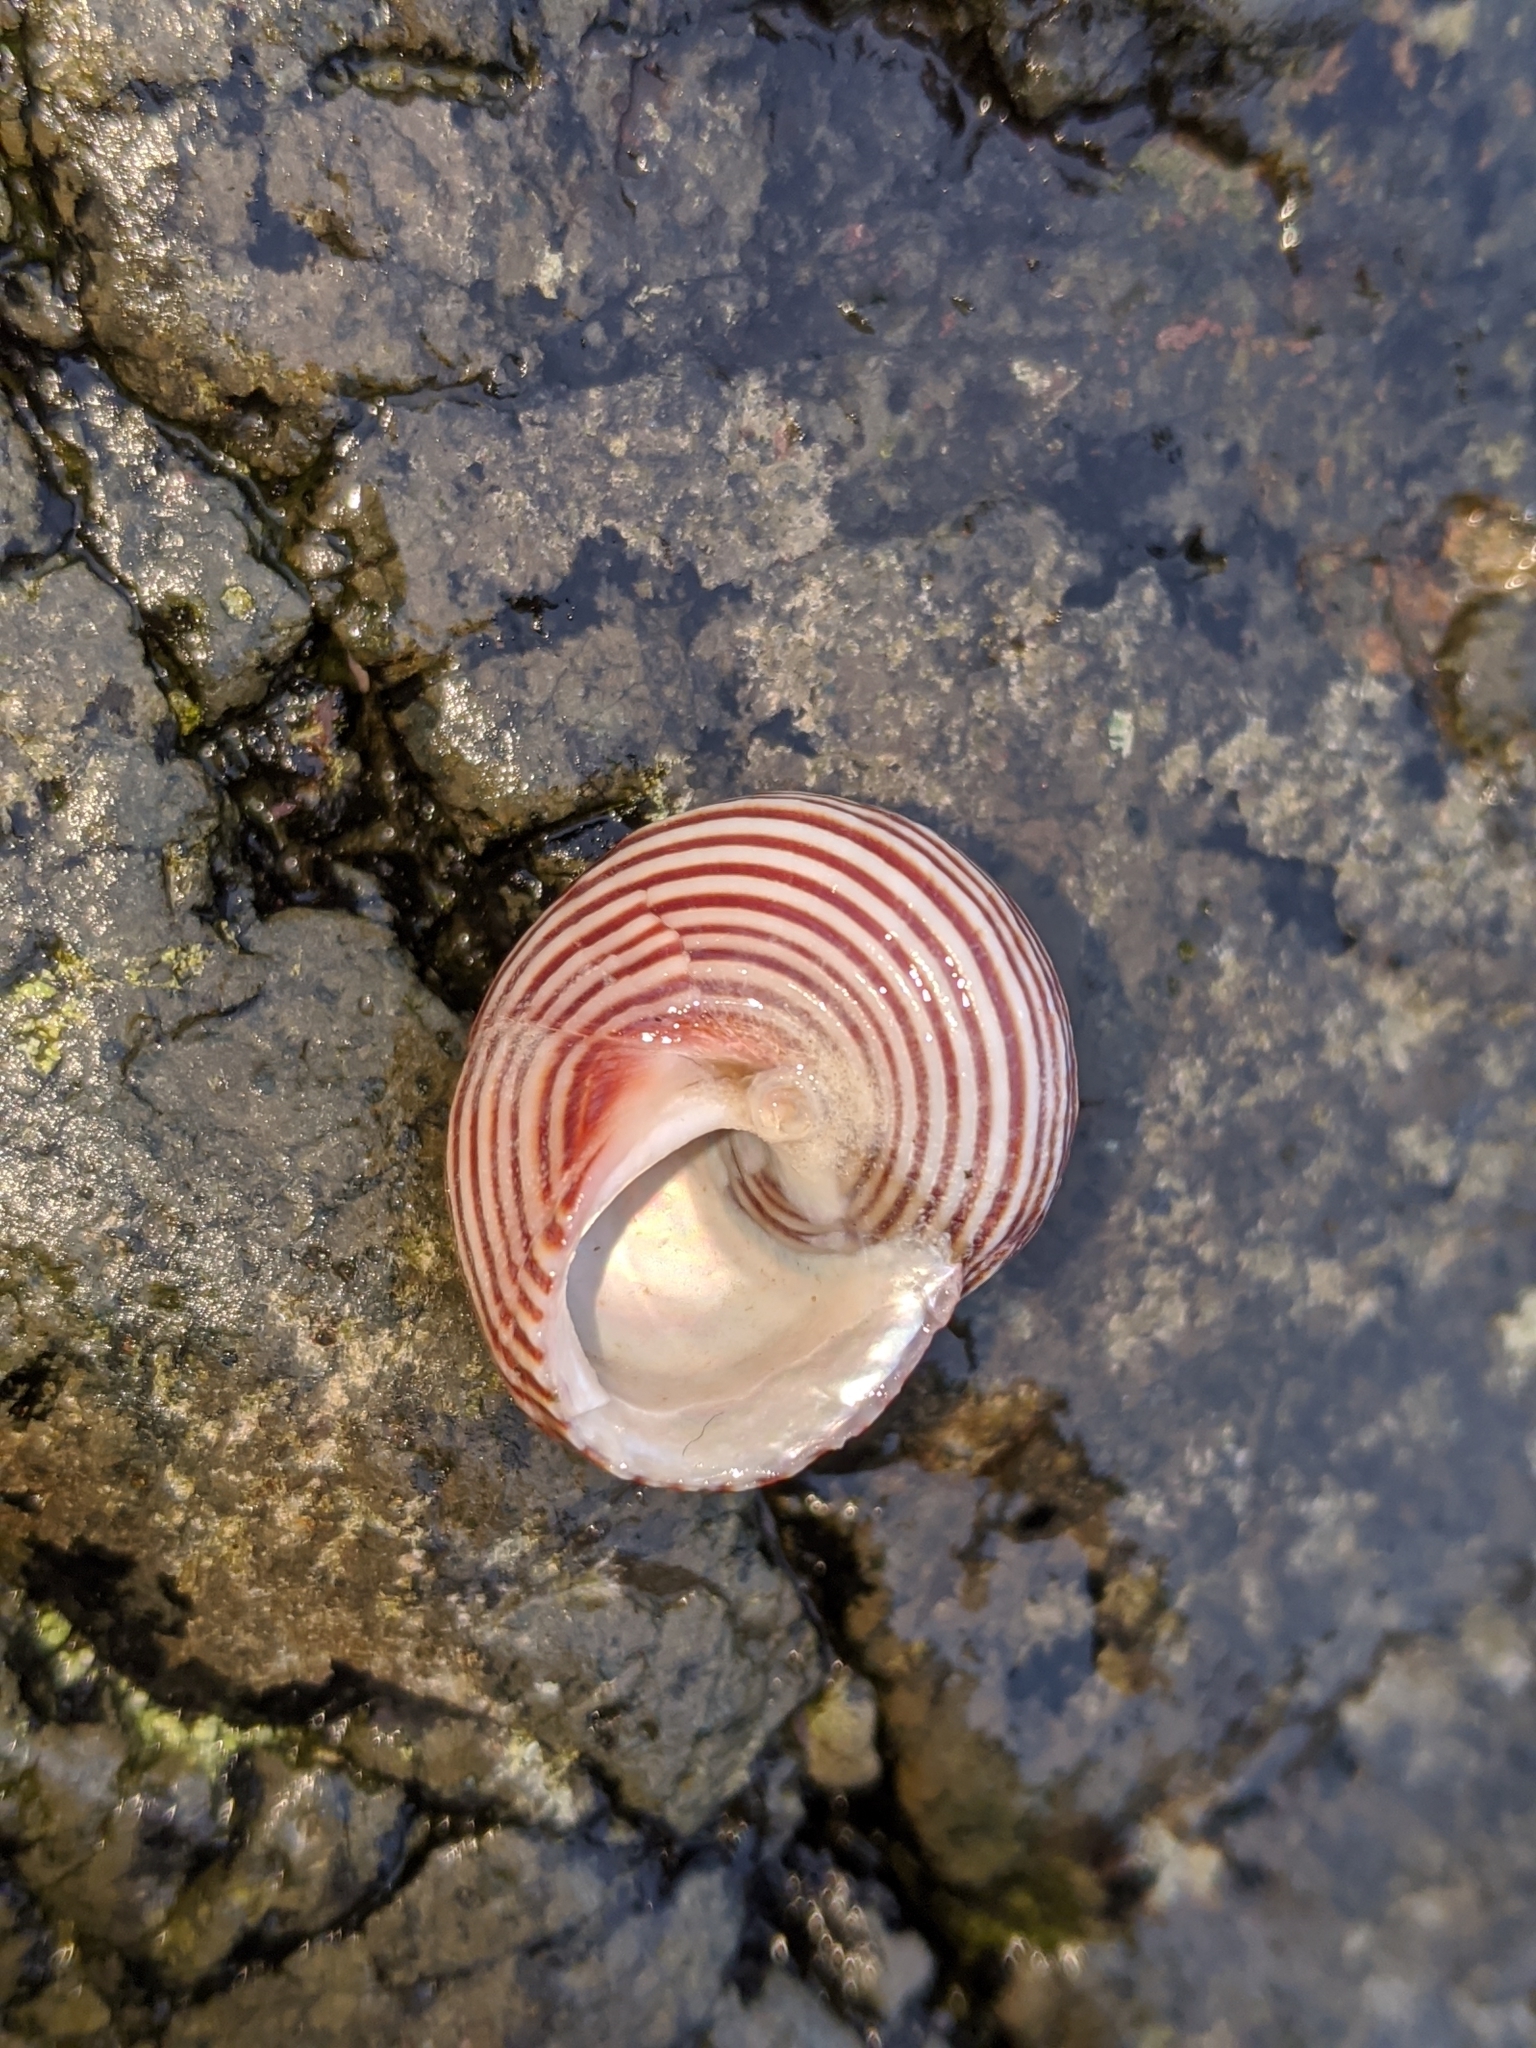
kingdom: Animalia
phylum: Mollusca
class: Gastropoda
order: Trochida
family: Calliostomatidae
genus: Calliostoma
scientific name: Calliostoma ligatum
